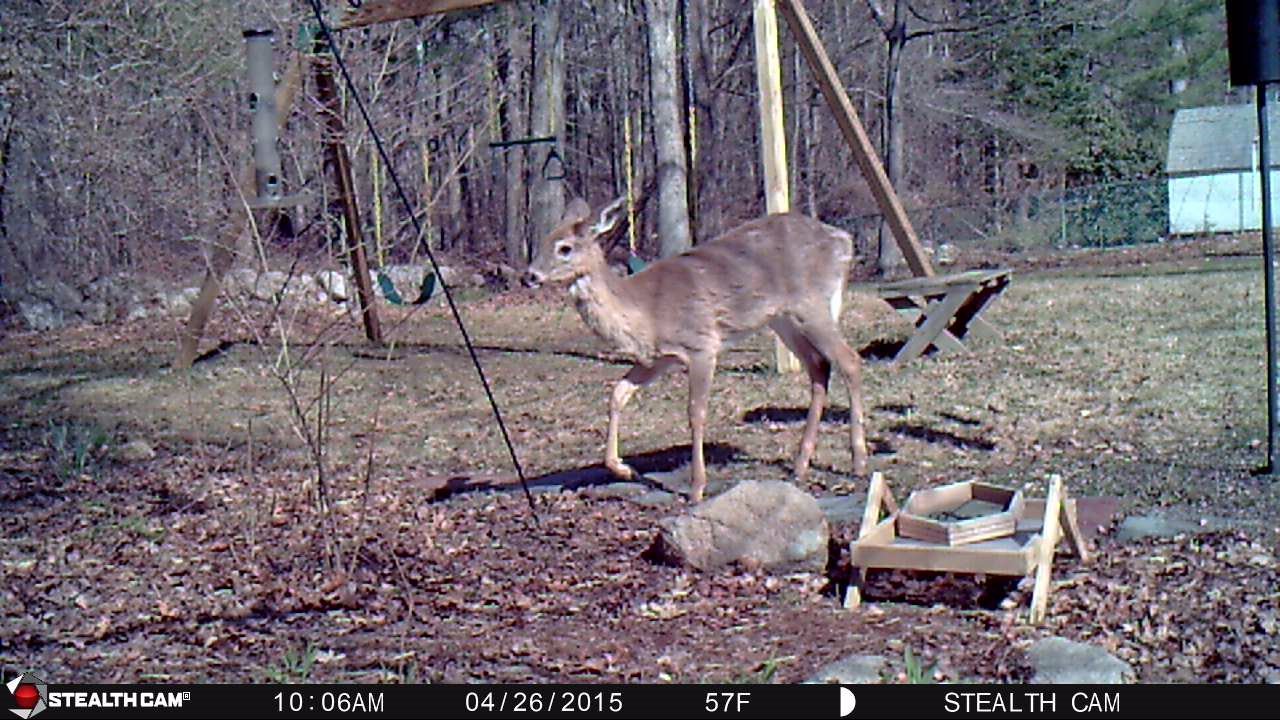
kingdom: Animalia
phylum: Chordata
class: Mammalia
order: Artiodactyla
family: Cervidae
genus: Odocoileus
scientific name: Odocoileus virginianus
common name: White-tailed deer
